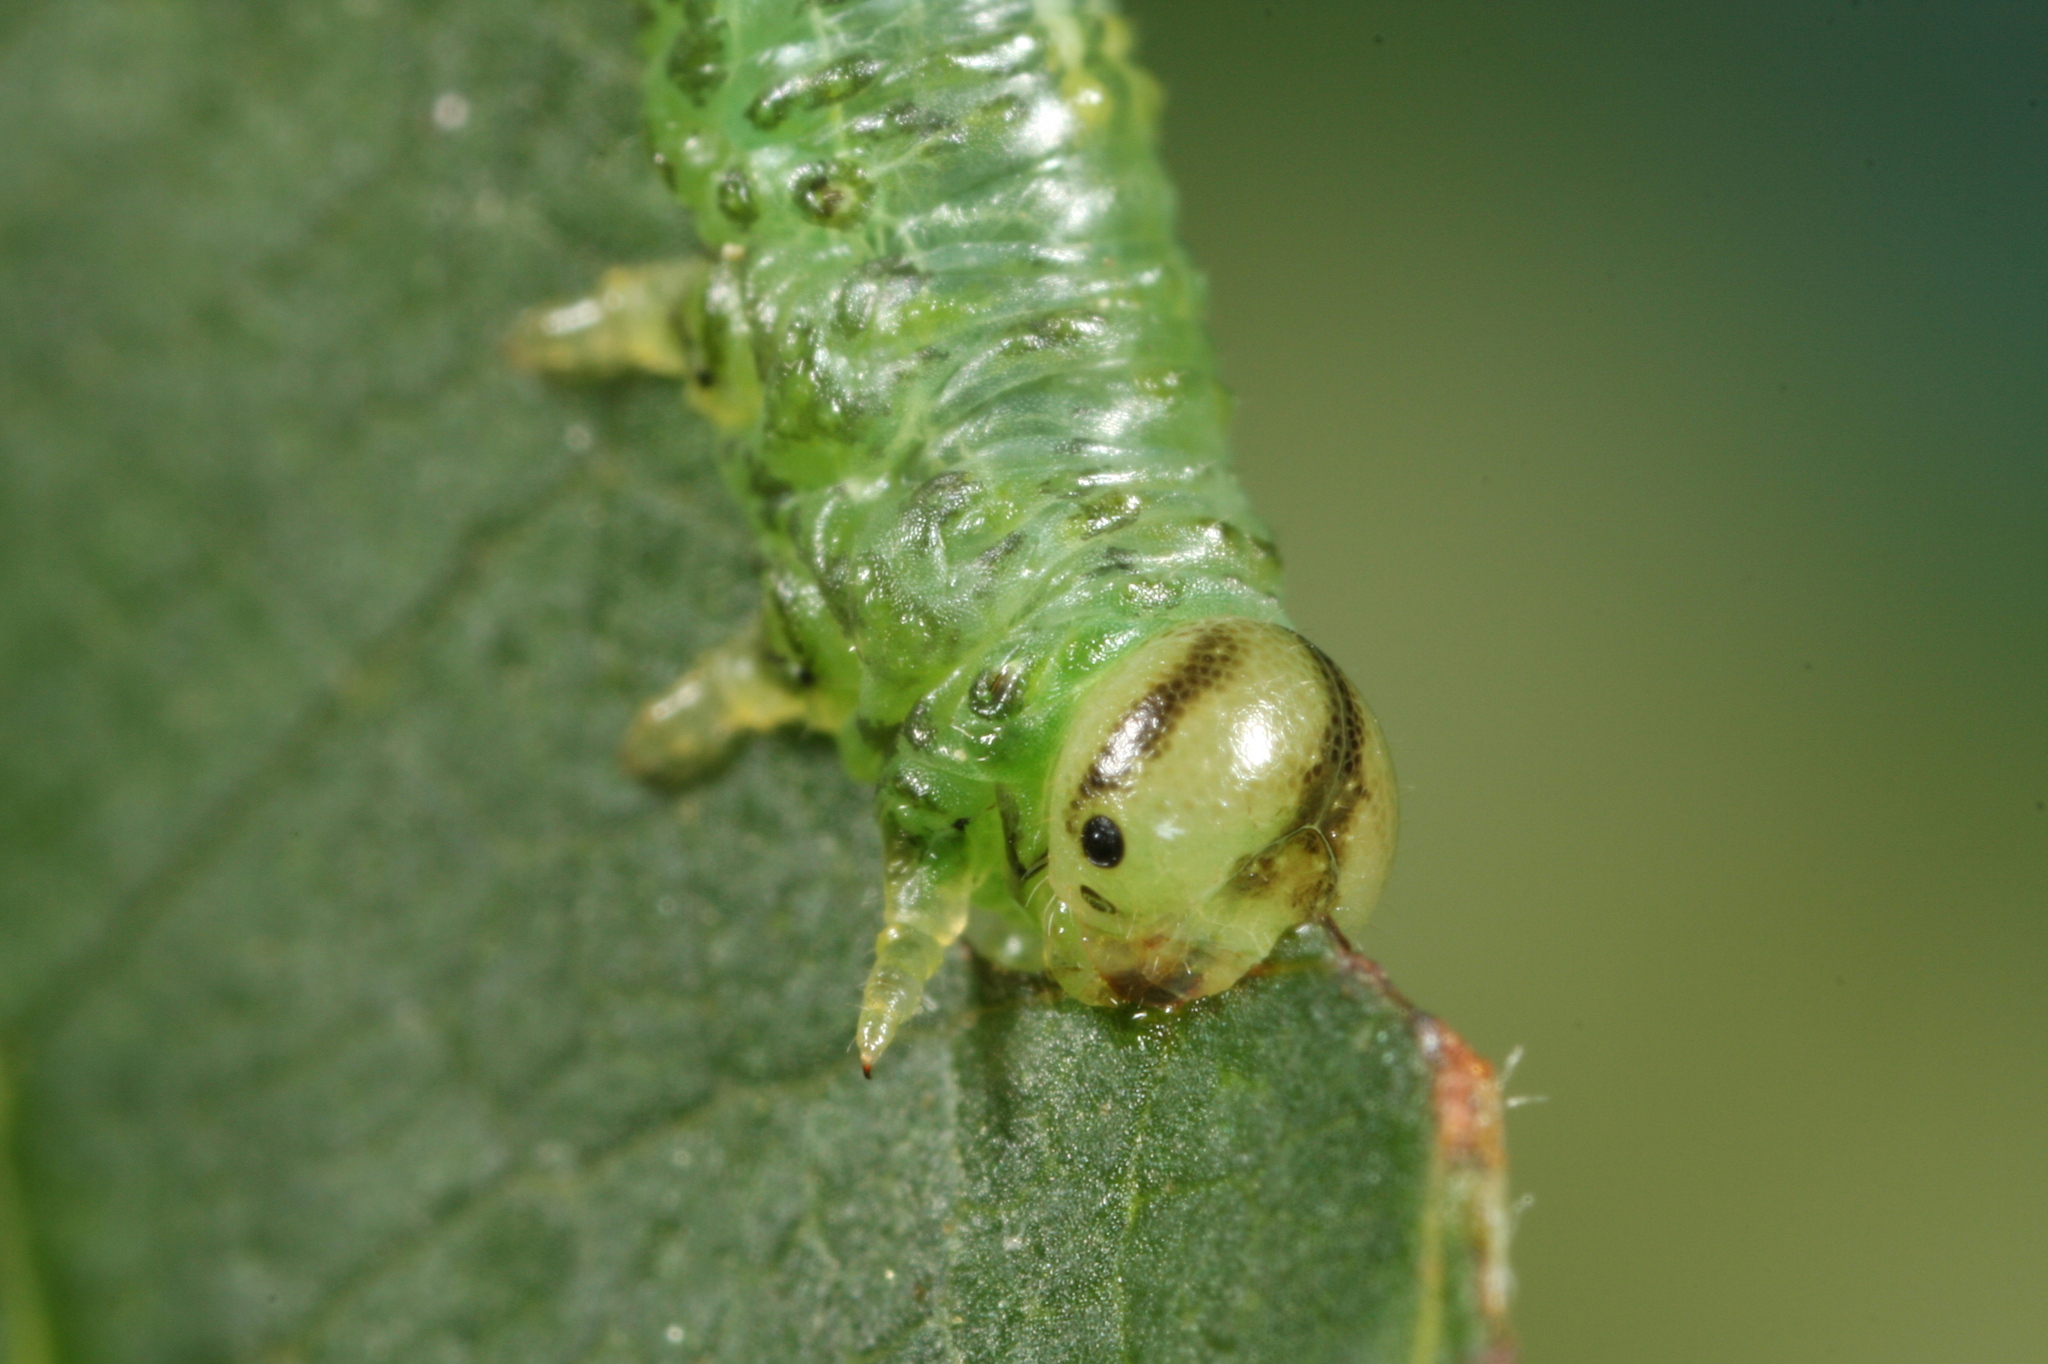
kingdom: Animalia
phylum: Arthropoda
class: Insecta
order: Hymenoptera
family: Tenthredinidae
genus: Euura
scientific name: Euura glutinosae
